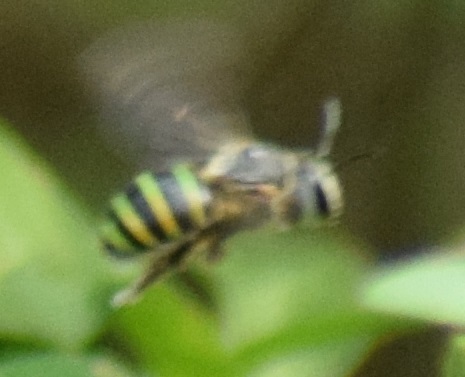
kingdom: Animalia
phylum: Arthropoda
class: Insecta
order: Hymenoptera
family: Halictidae
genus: Nomia
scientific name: Nomia strigata
